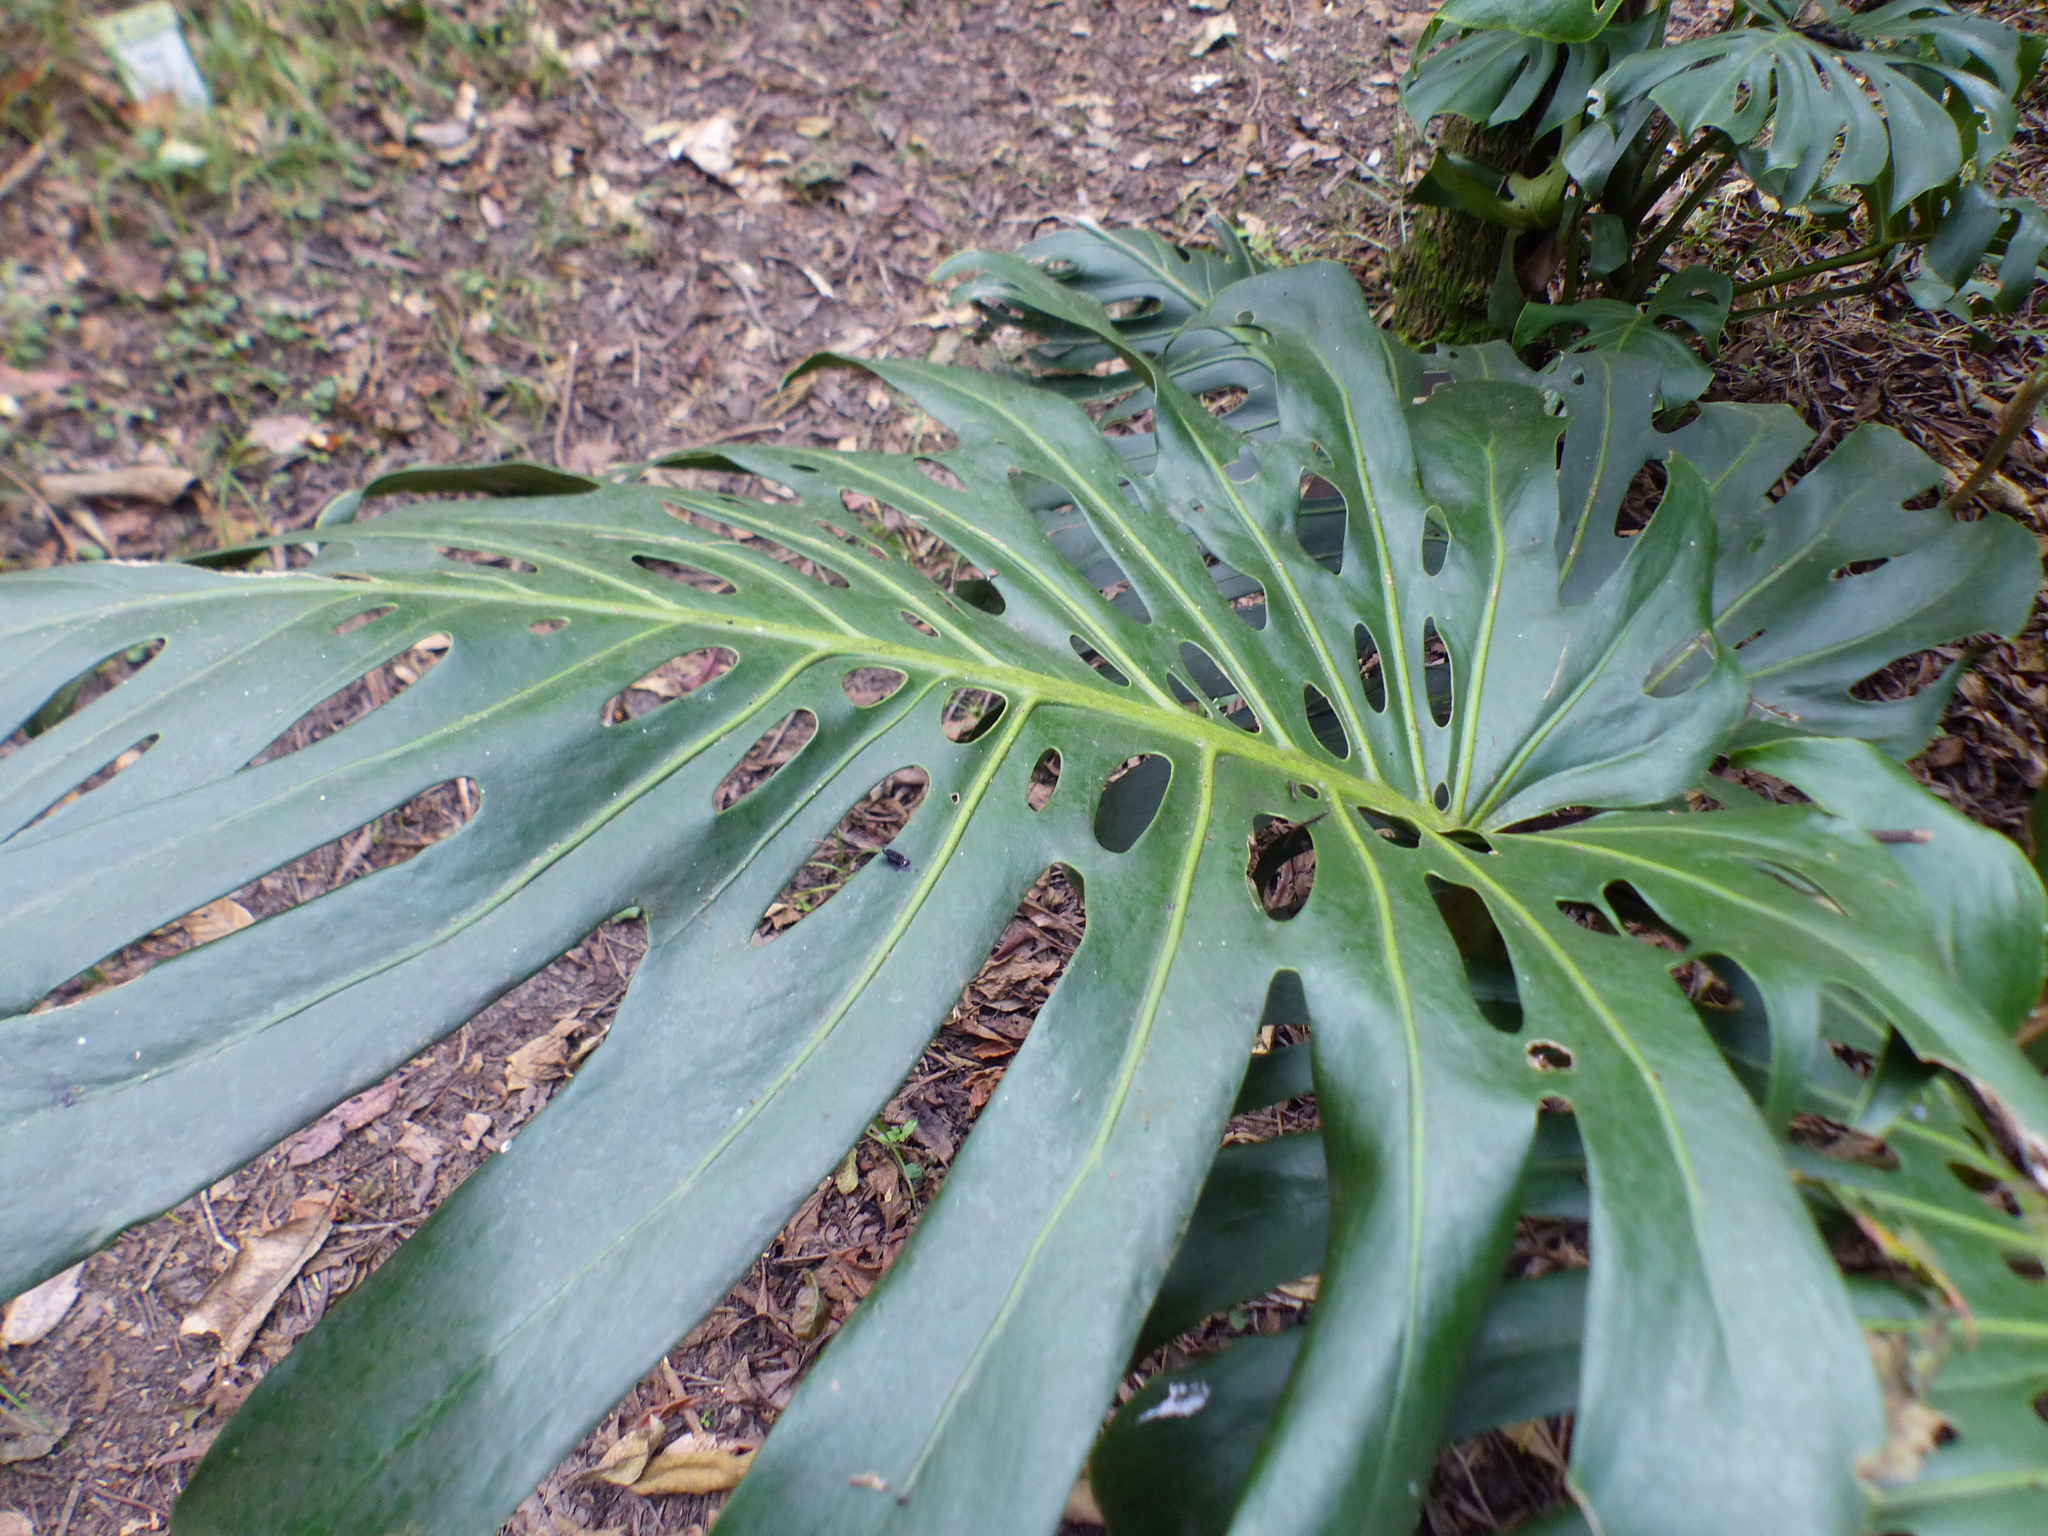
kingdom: Plantae
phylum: Tracheophyta
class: Liliopsida
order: Alismatales
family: Araceae
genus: Monstera
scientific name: Monstera deliciosa
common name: Cut-leaf-philodendron
